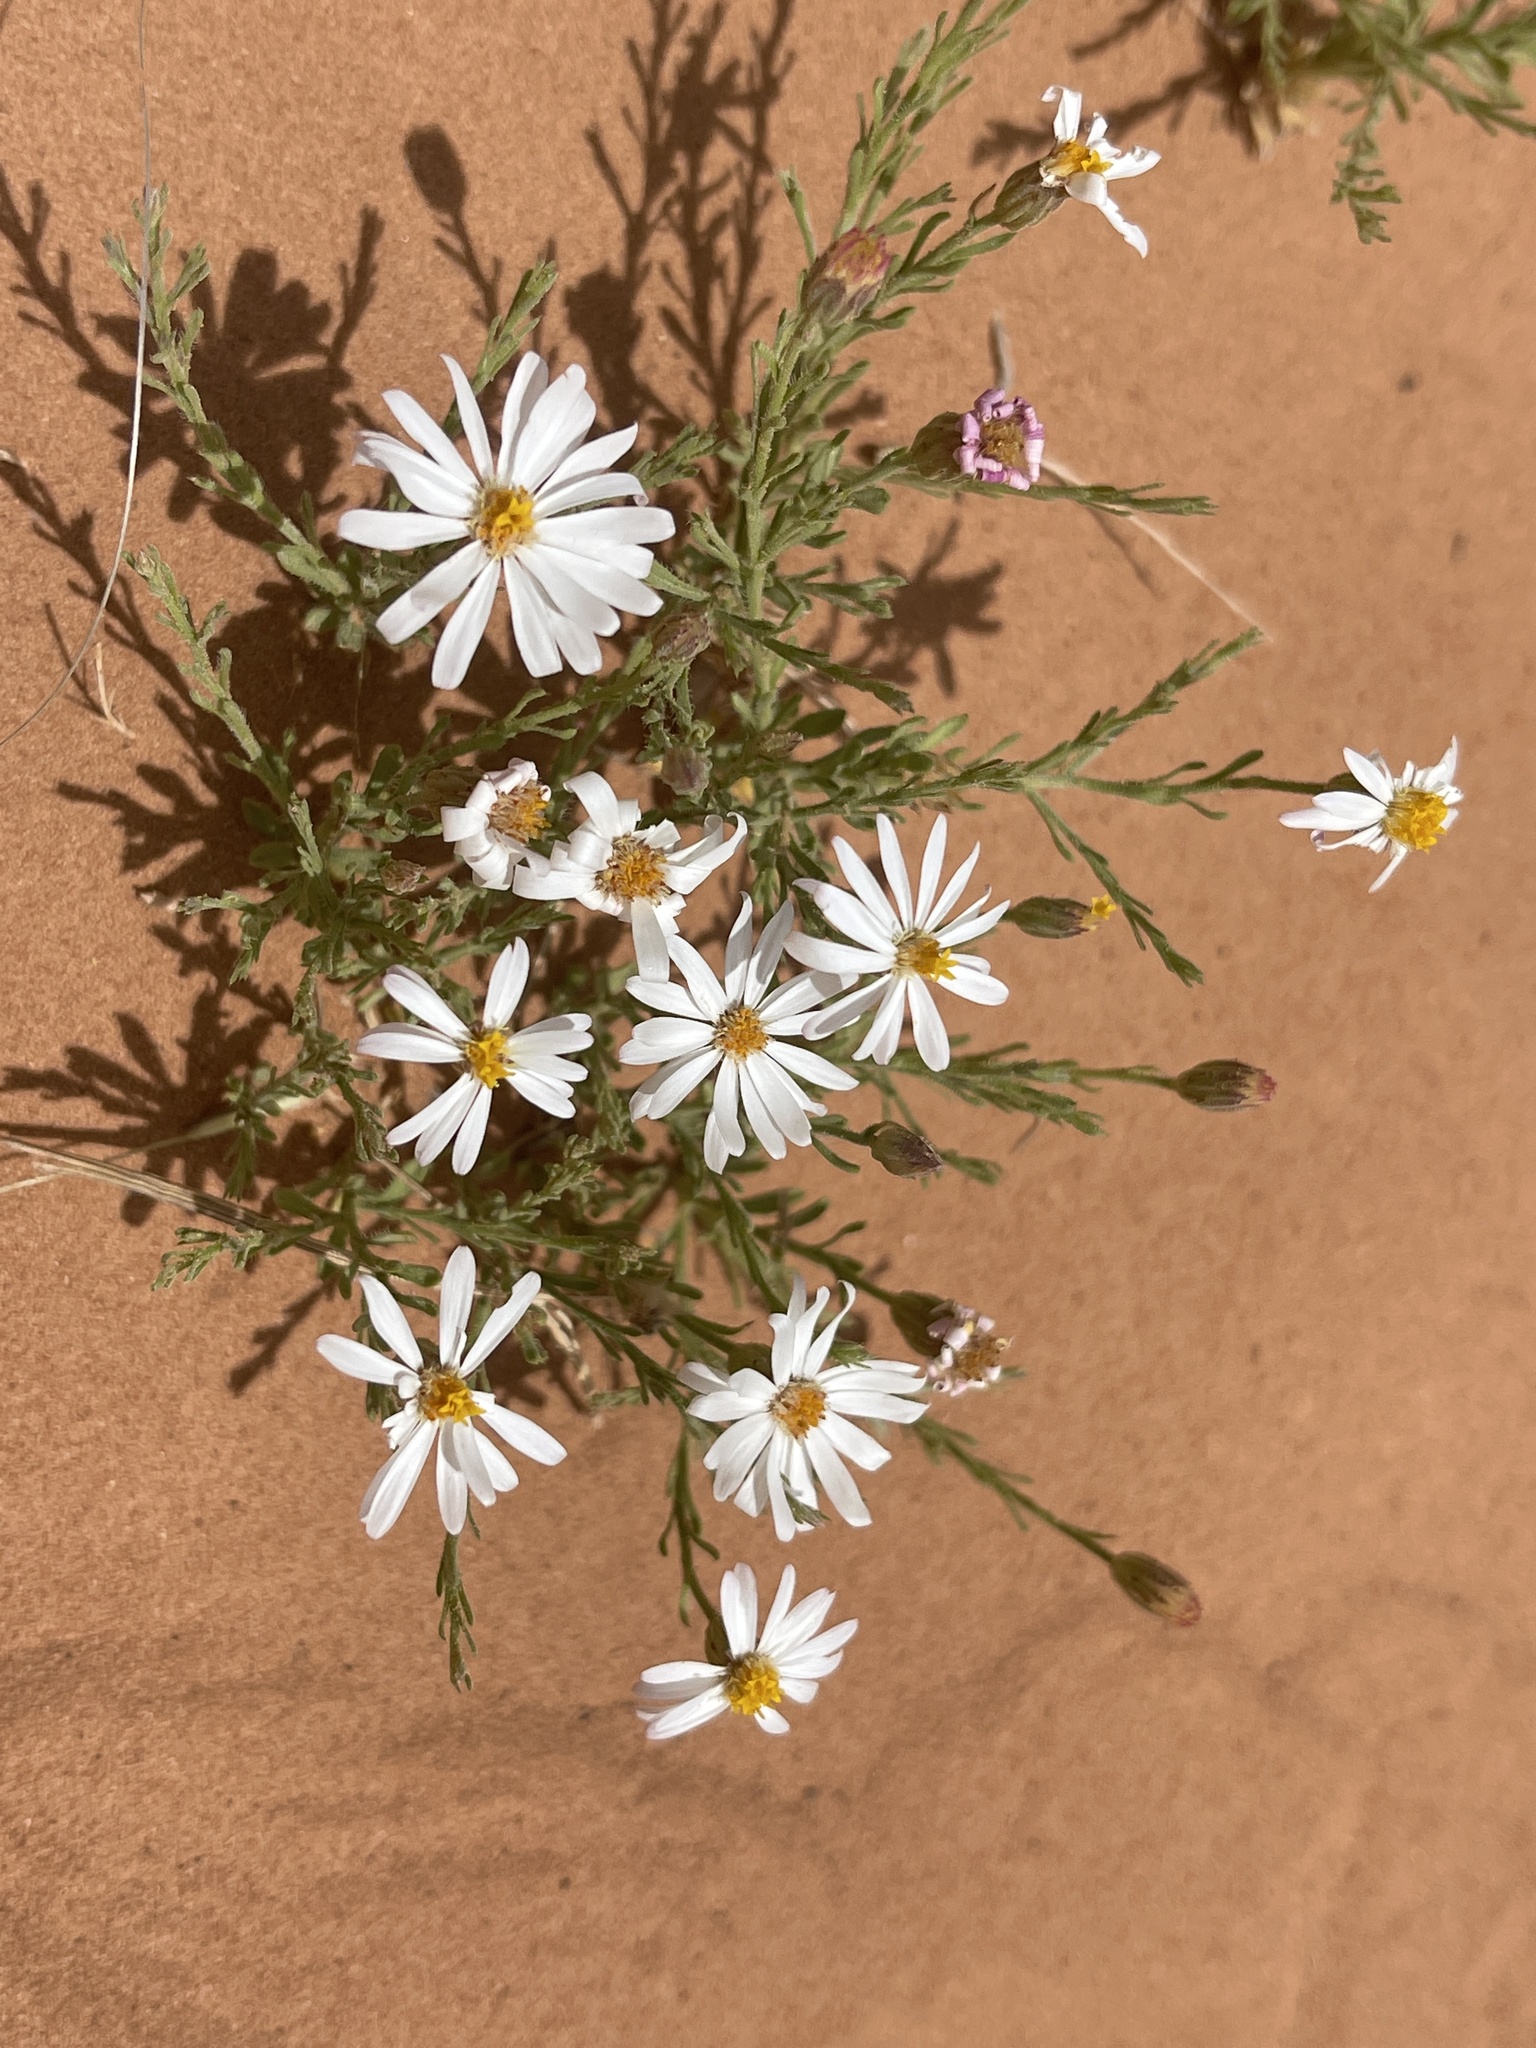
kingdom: Plantae
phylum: Tracheophyta
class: Magnoliopsida
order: Asterales
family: Asteraceae
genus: Chaetopappa
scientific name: Chaetopappa ericoides
